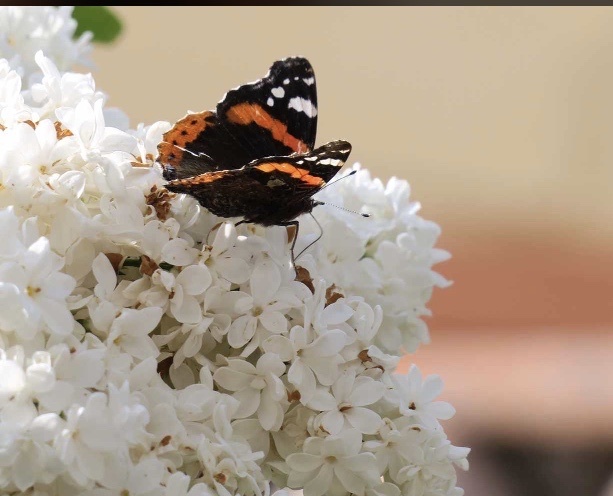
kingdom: Animalia
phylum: Arthropoda
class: Insecta
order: Lepidoptera
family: Nymphalidae
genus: Vanessa
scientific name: Vanessa atalanta
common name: Red admiral
